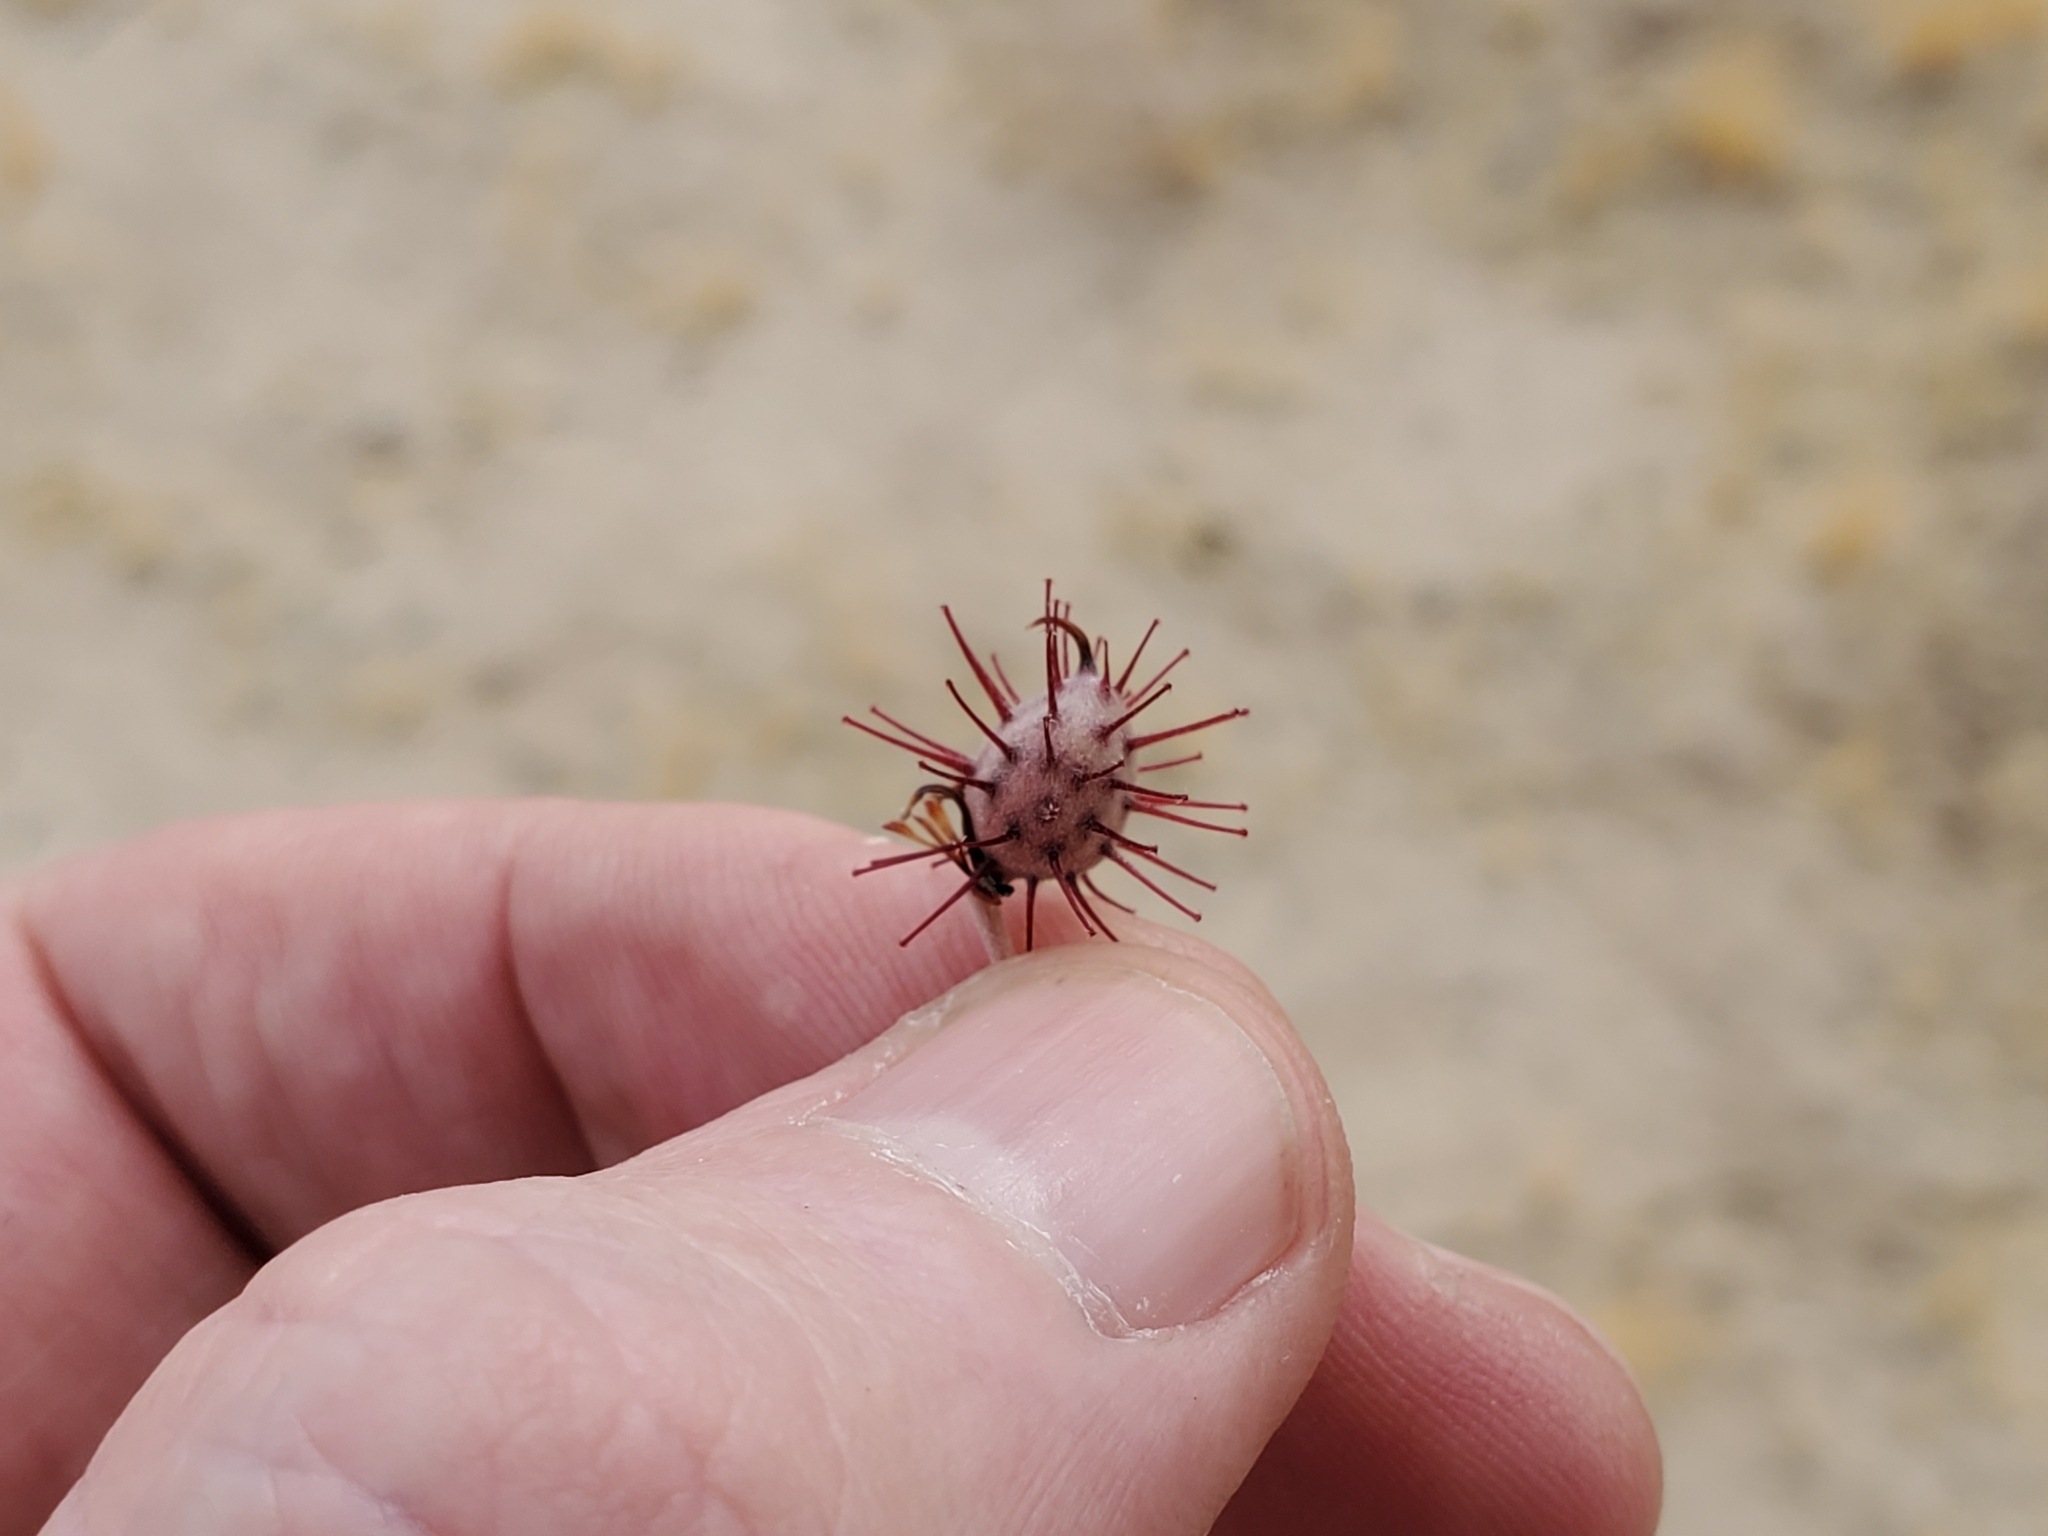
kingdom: Plantae
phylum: Tracheophyta
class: Magnoliopsida
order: Zygophyllales
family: Krameriaceae
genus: Krameria
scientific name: Krameria bicolor
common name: White ratany
